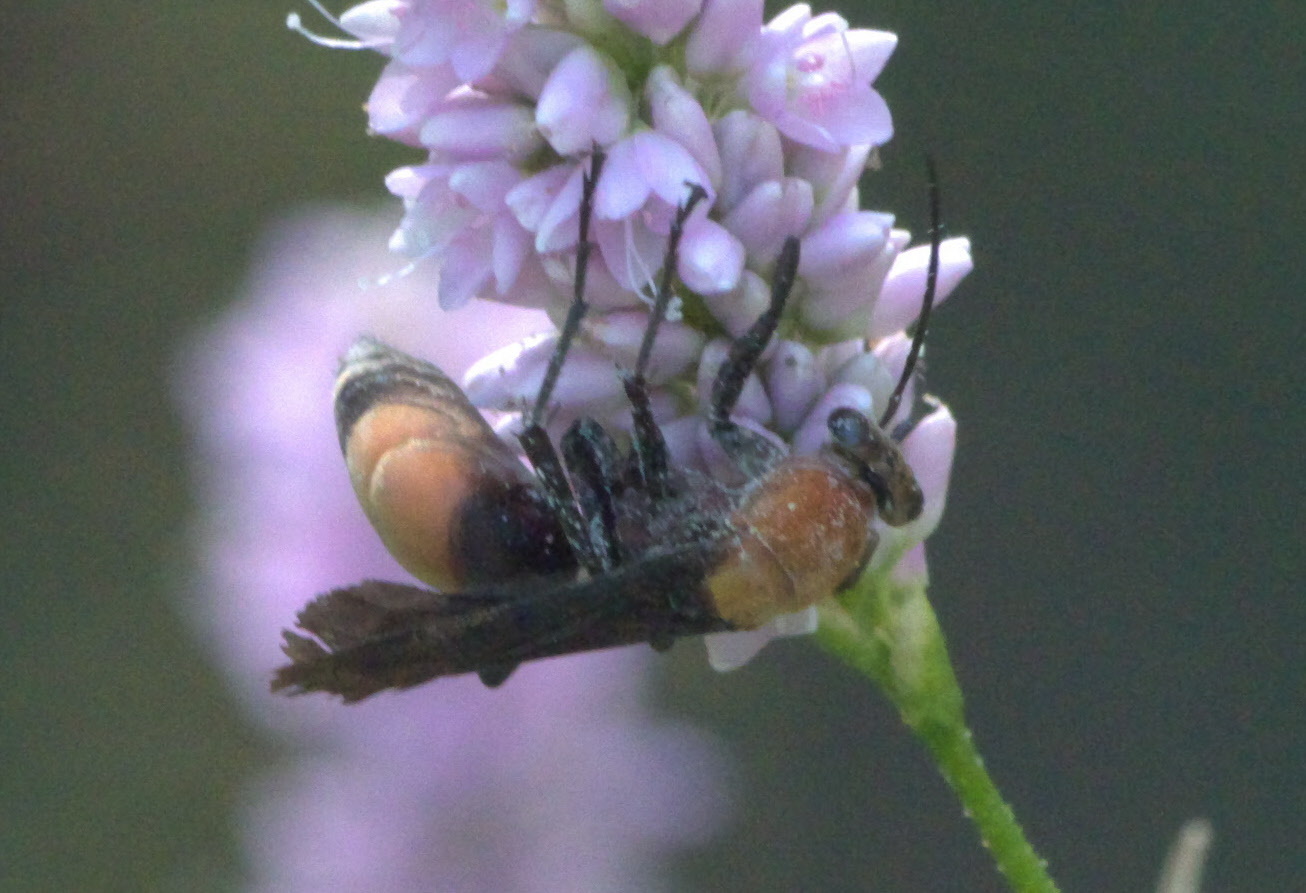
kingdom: Animalia
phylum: Arthropoda
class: Insecta
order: Hymenoptera
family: Pompilidae
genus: Psorthaspis
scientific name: Psorthaspis sanguinea
